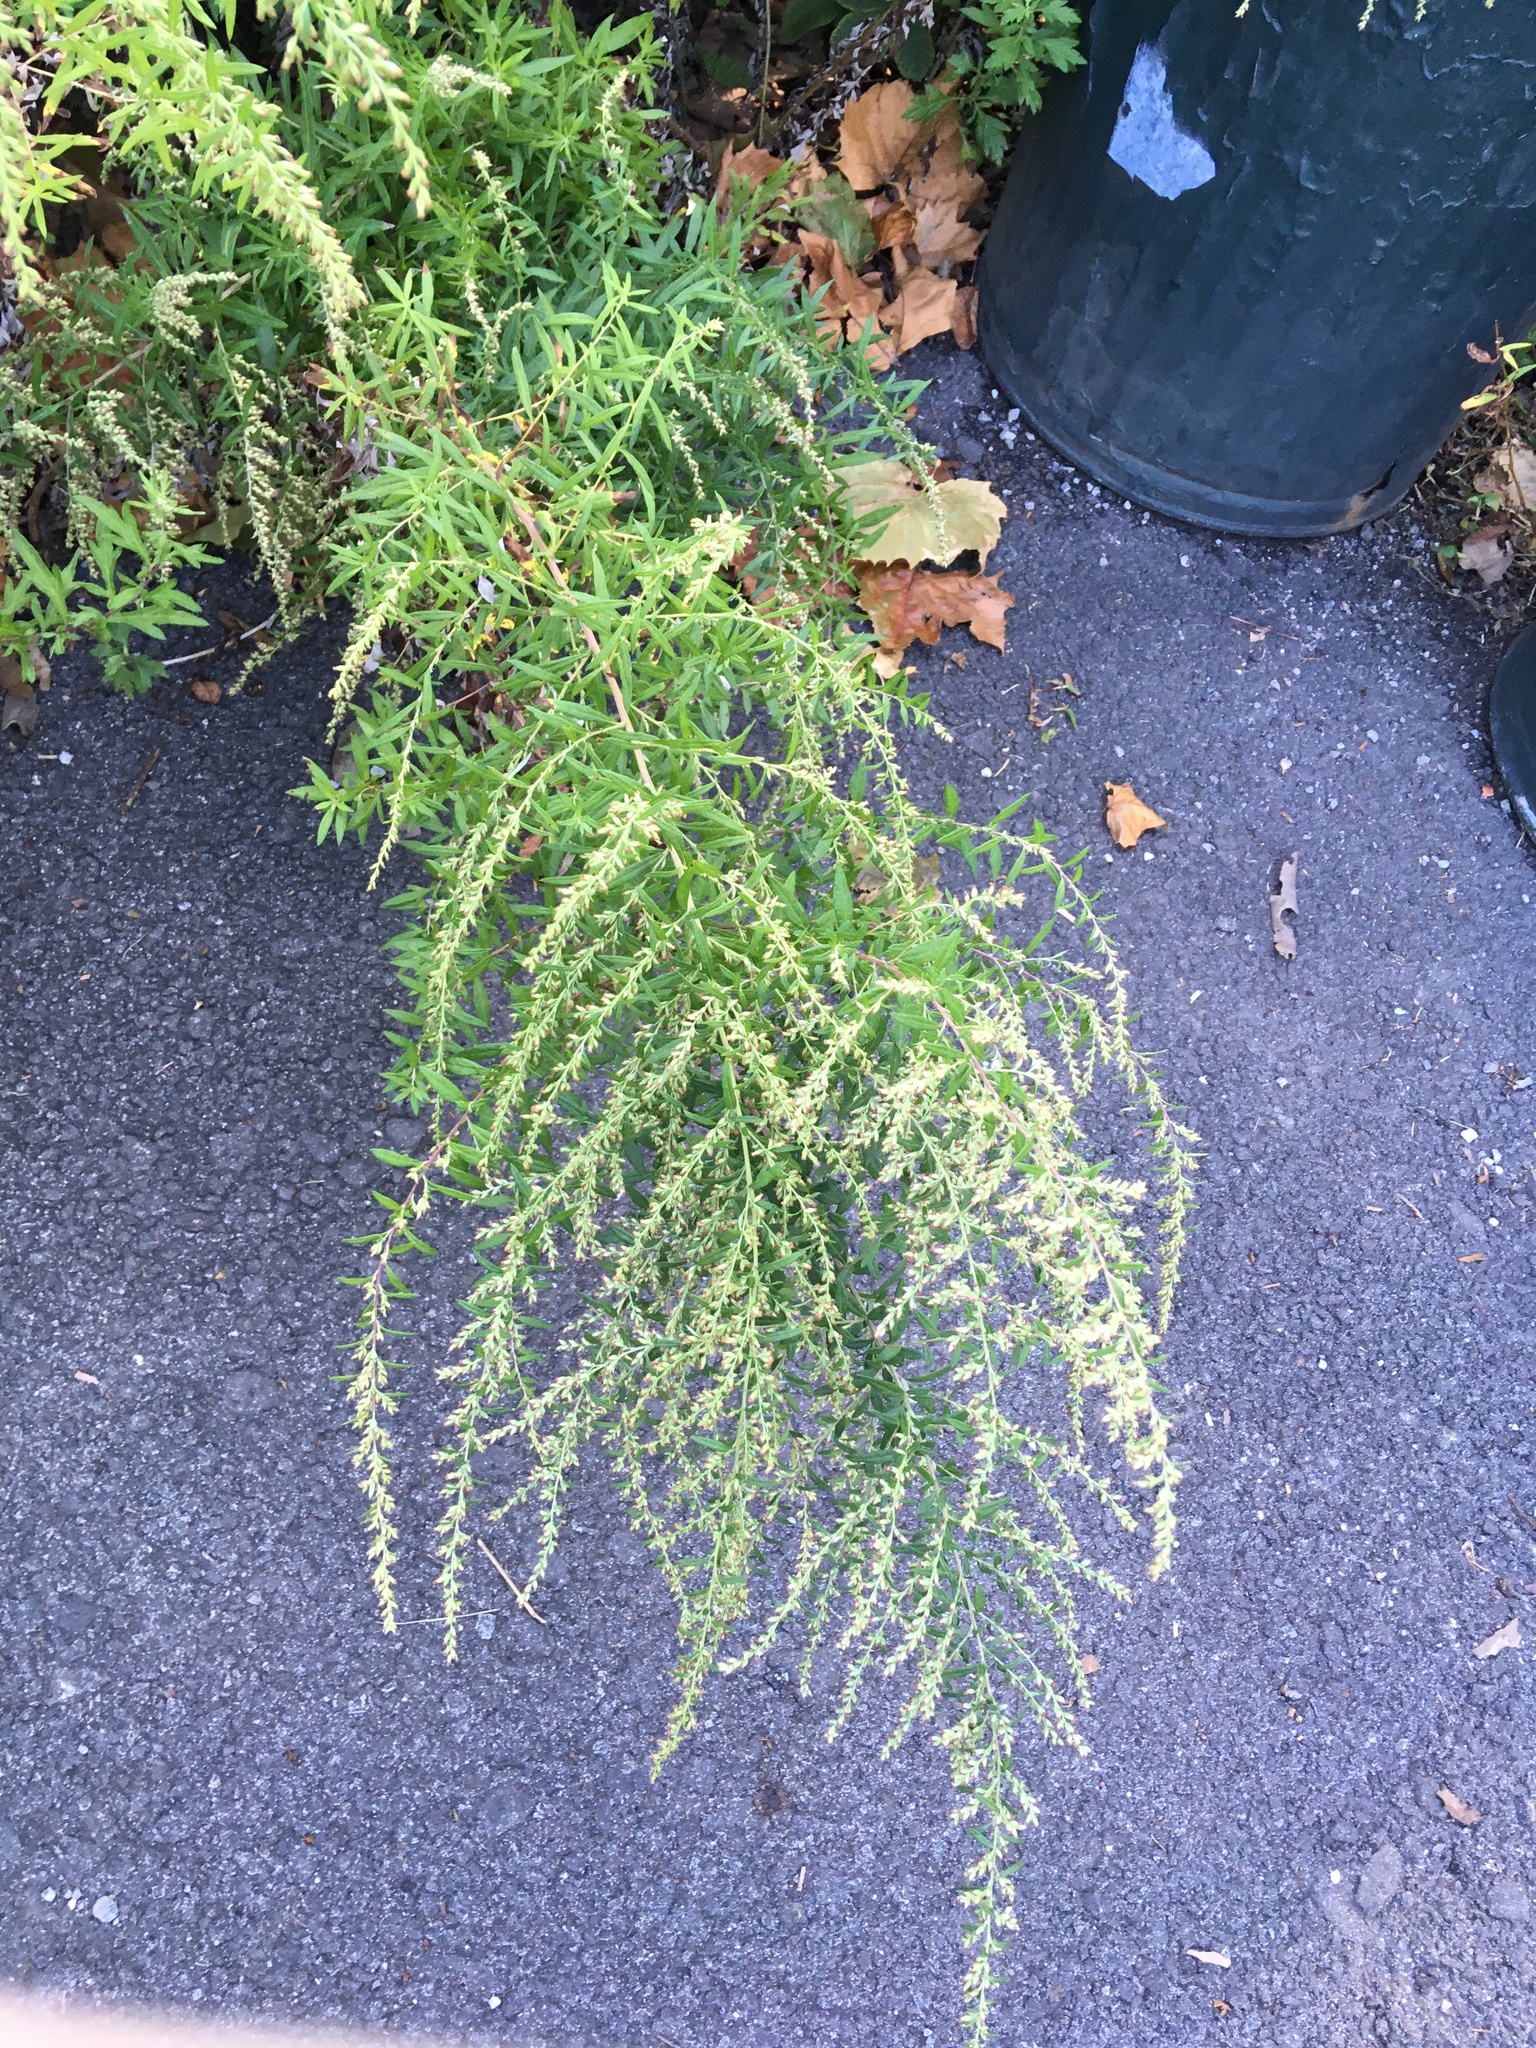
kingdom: Plantae
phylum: Tracheophyta
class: Magnoliopsida
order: Asterales
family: Asteraceae
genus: Artemisia
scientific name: Artemisia vulgaris
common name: Mugwort
